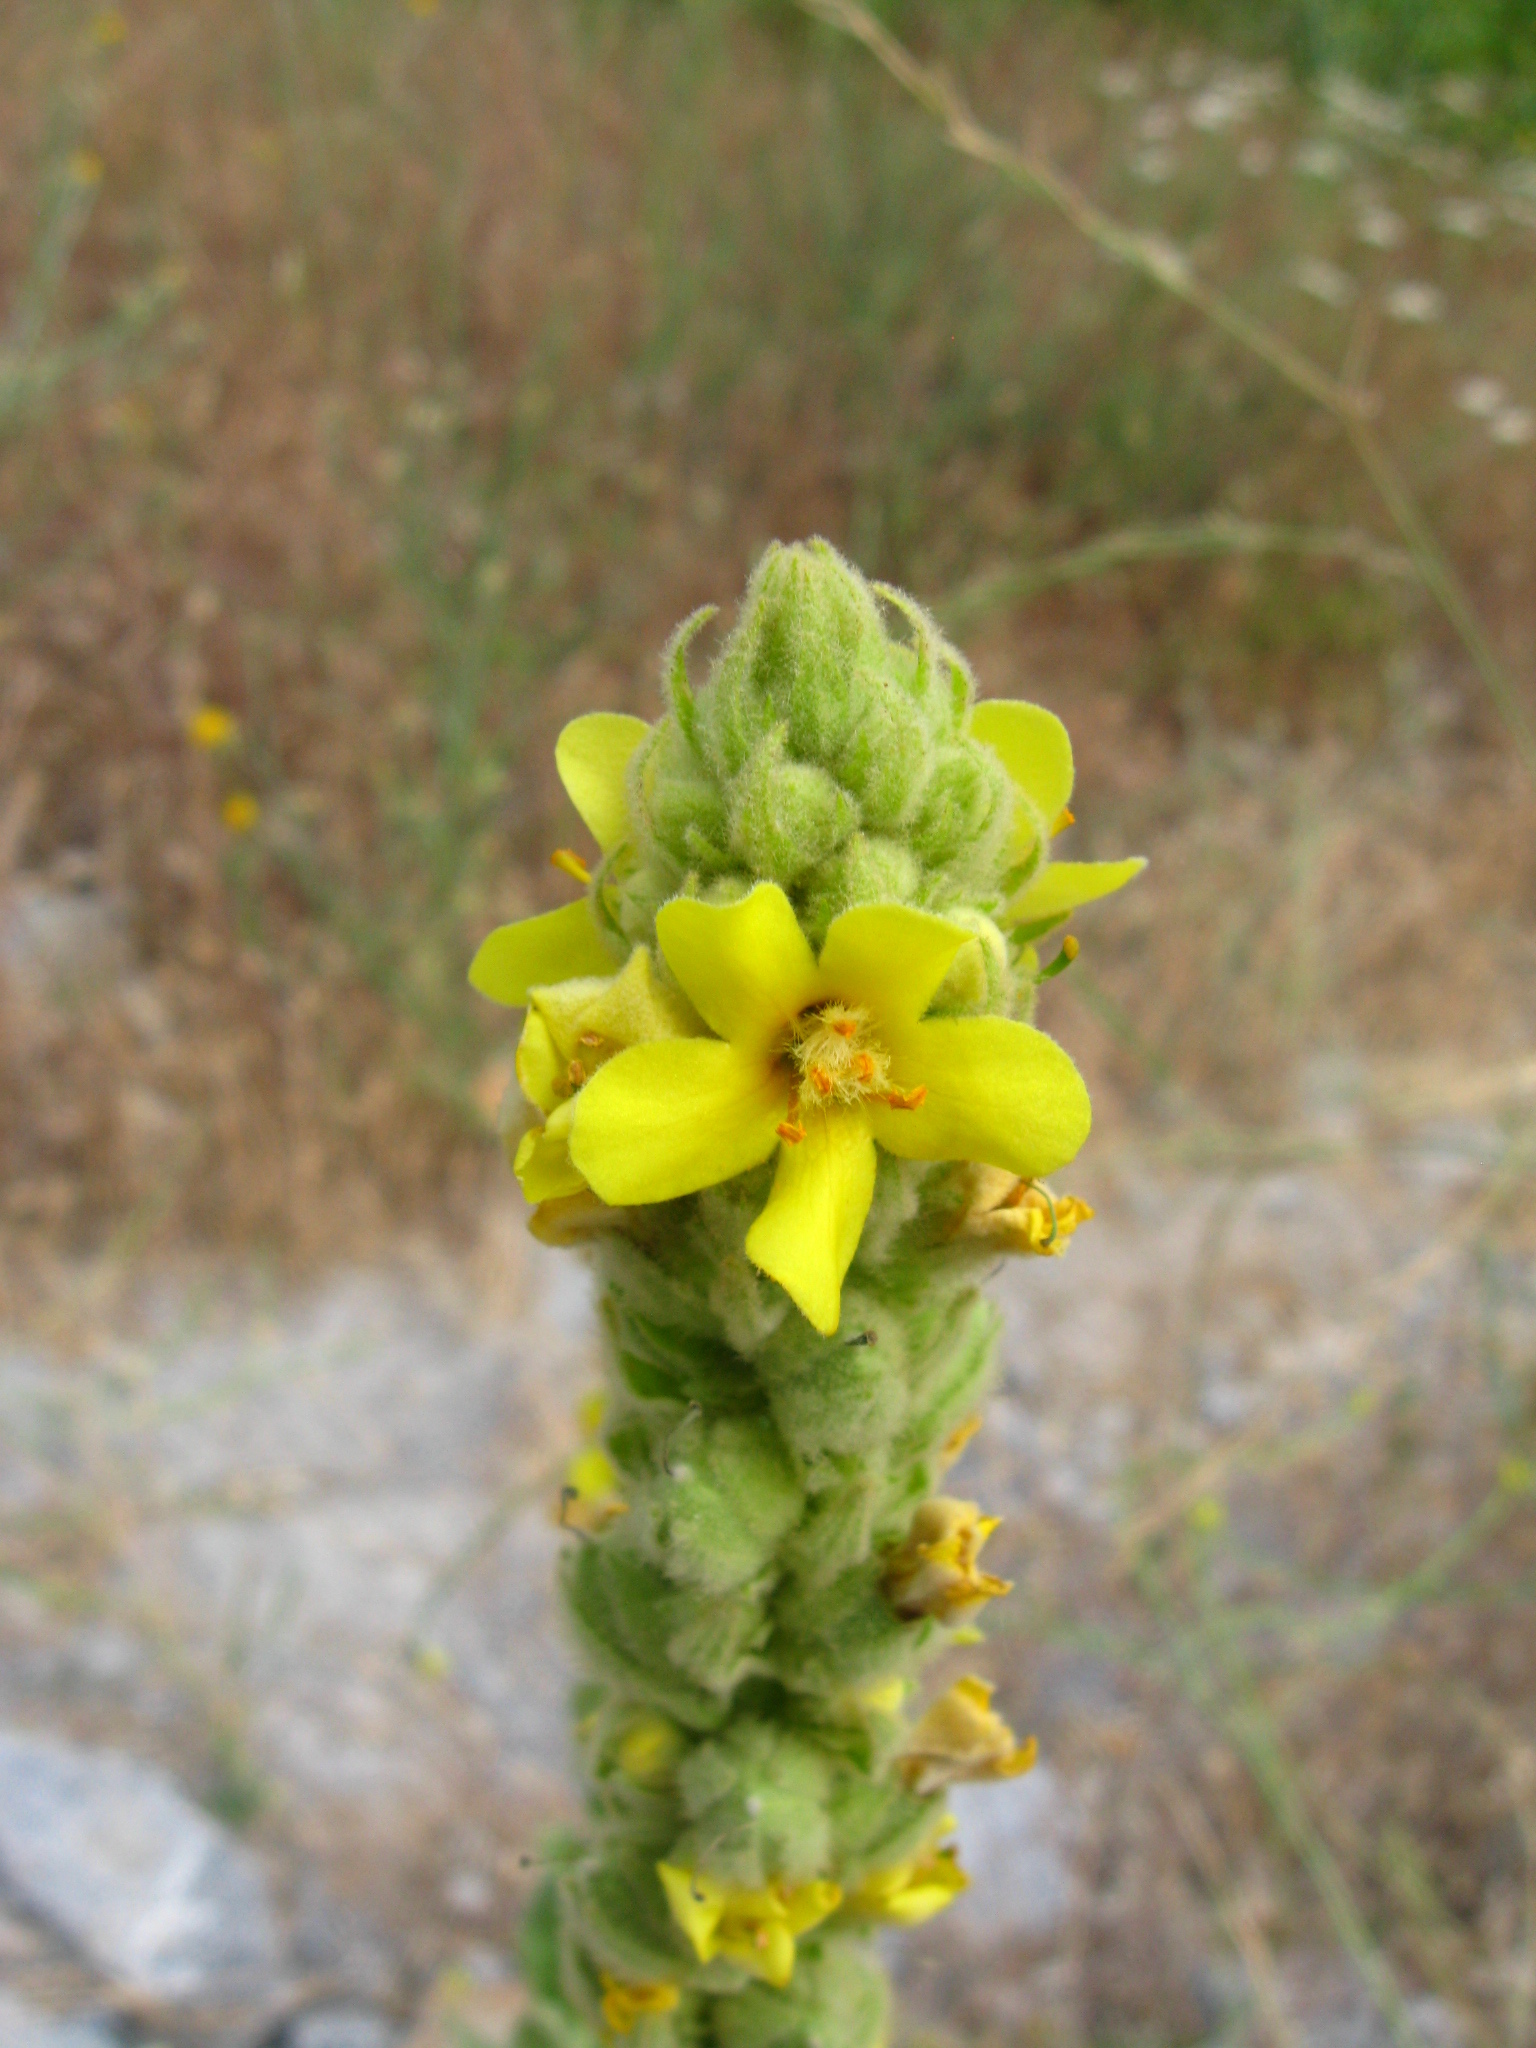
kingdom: Plantae
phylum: Tracheophyta
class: Magnoliopsida
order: Lamiales
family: Scrophulariaceae
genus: Verbascum
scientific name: Verbascum thapsus
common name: Common mullein
